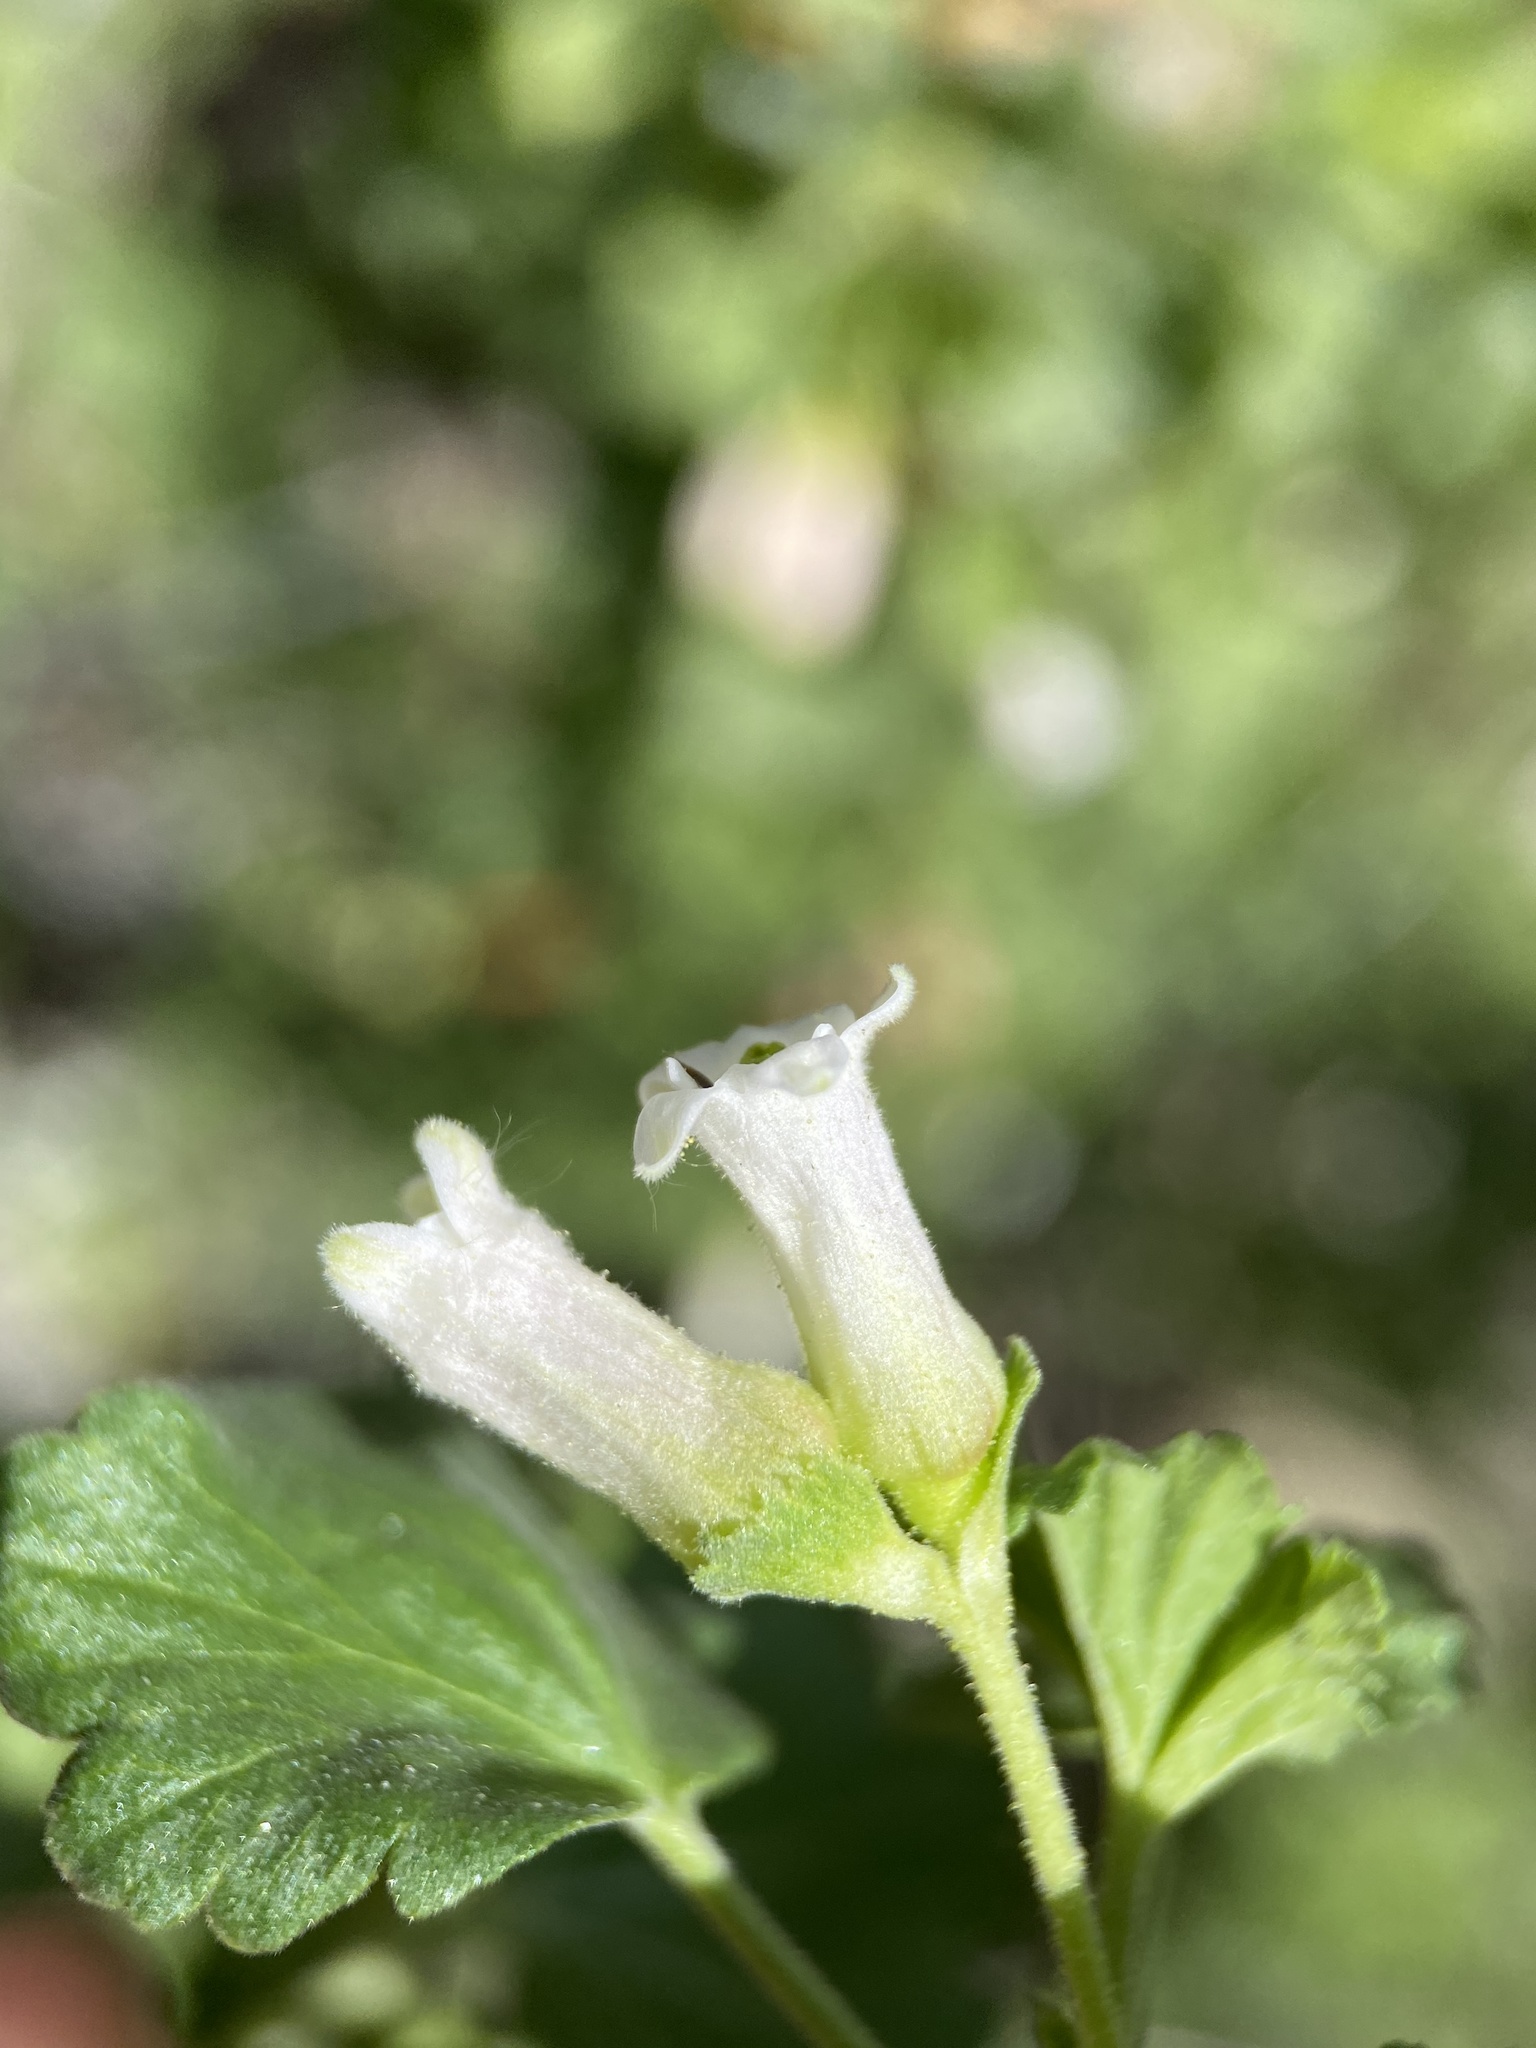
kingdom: Plantae
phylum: Tracheophyta
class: Magnoliopsida
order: Saxifragales
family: Grossulariaceae
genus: Ribes
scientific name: Ribes cereum
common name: Wax currant
